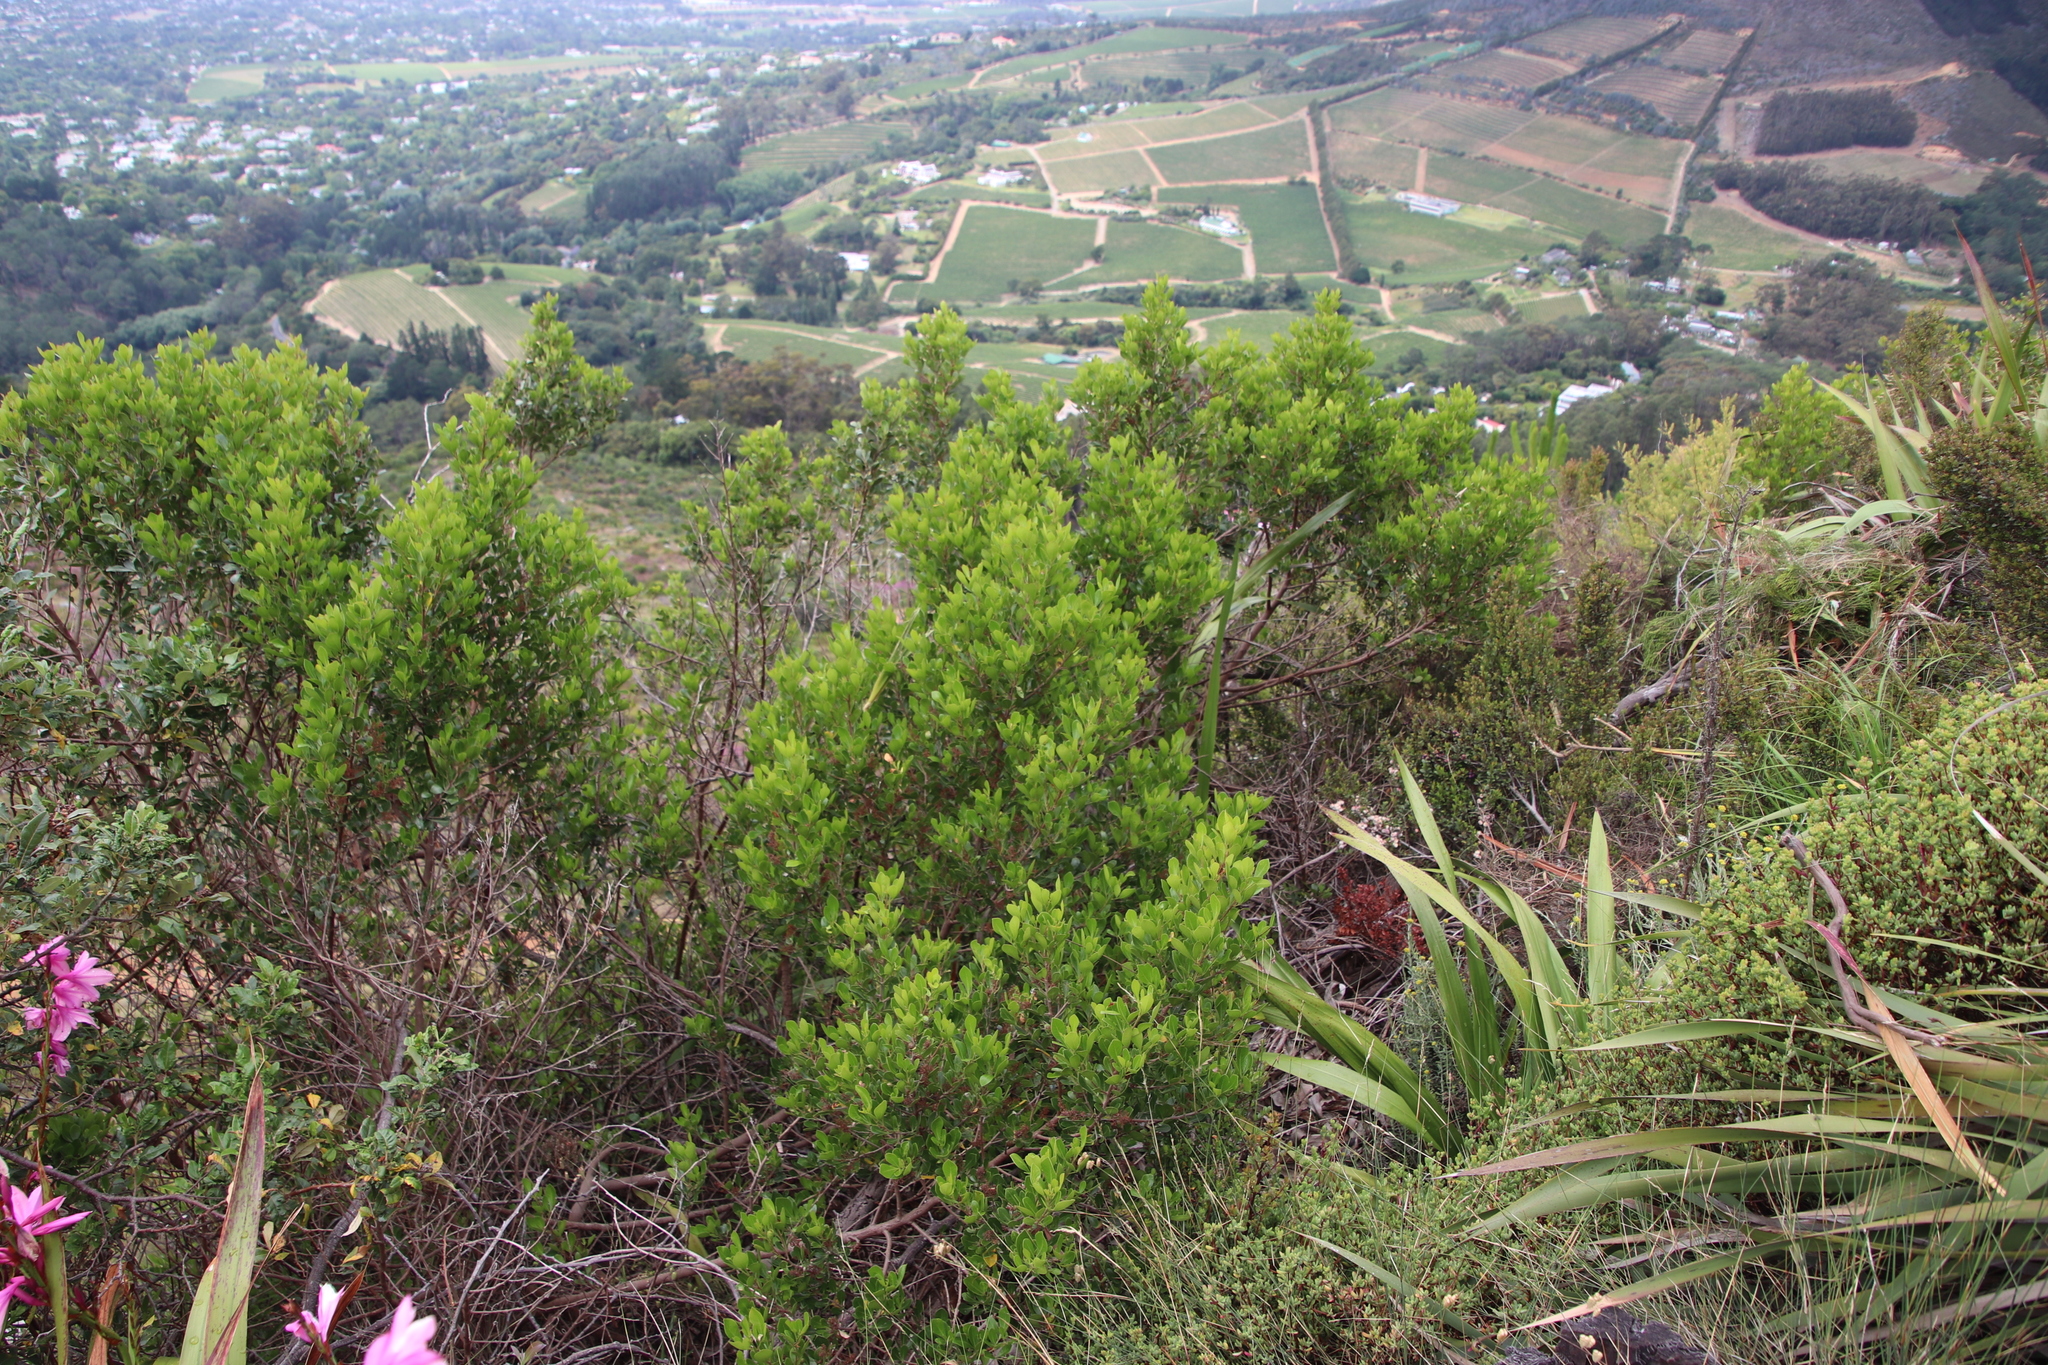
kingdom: Plantae
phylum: Tracheophyta
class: Magnoliopsida
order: Sapindales
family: Anacardiaceae
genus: Searsia
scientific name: Searsia lucida
